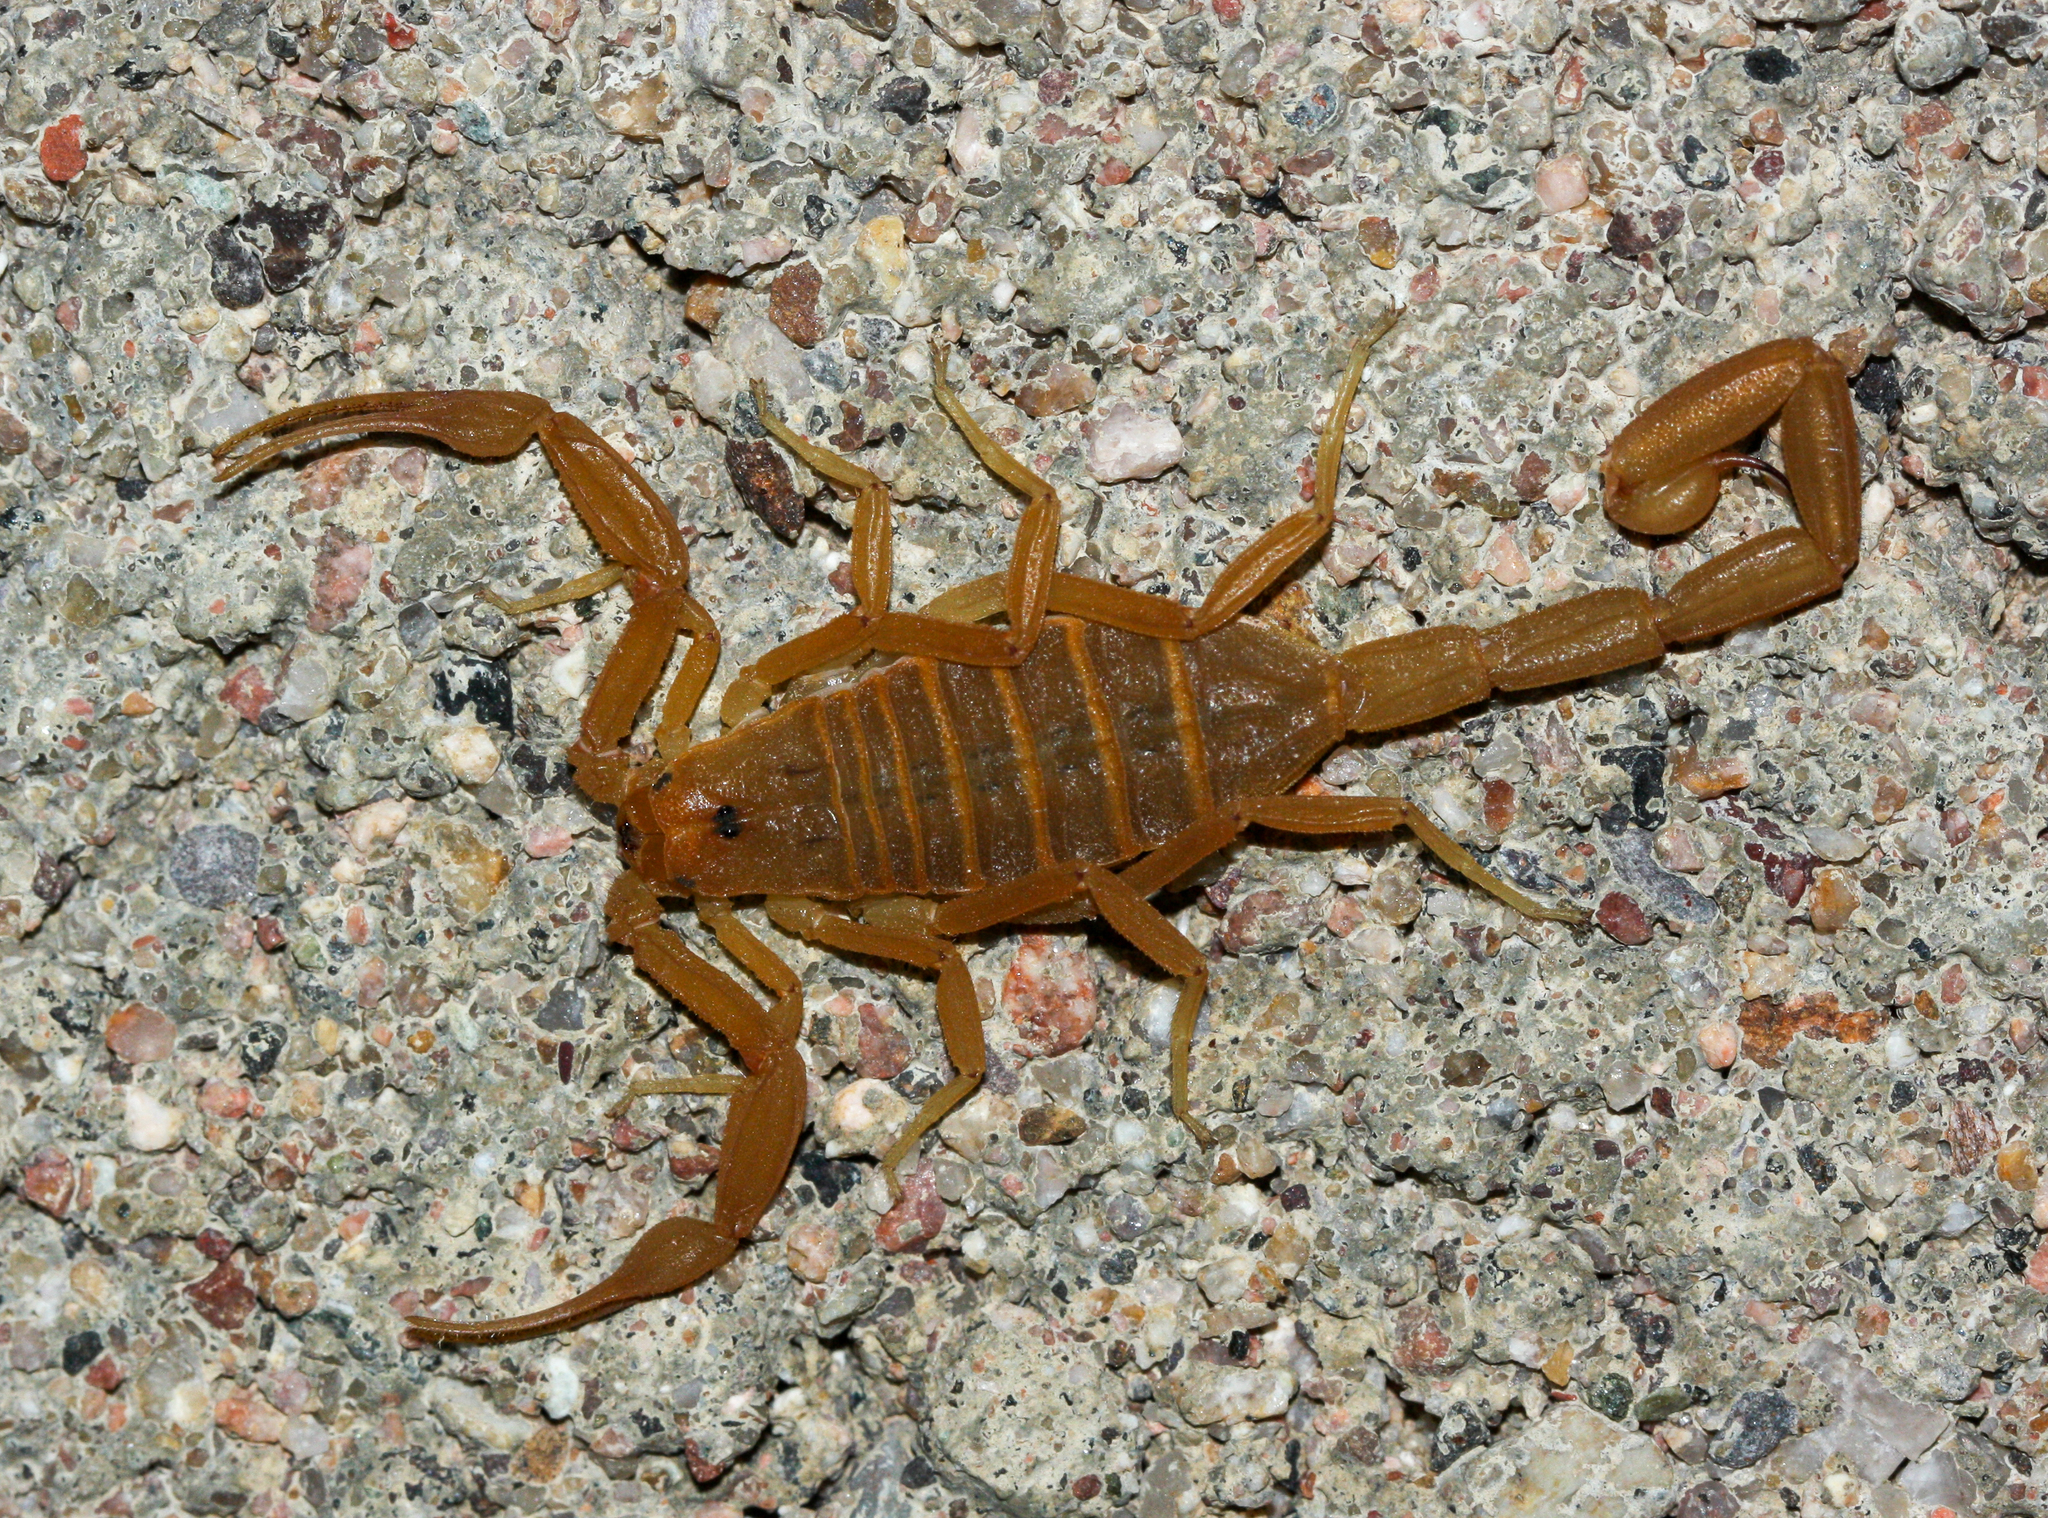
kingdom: Animalia
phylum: Arthropoda
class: Arachnida
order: Scorpiones
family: Buthidae
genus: Centruroides
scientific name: Centruroides sculpturatus
